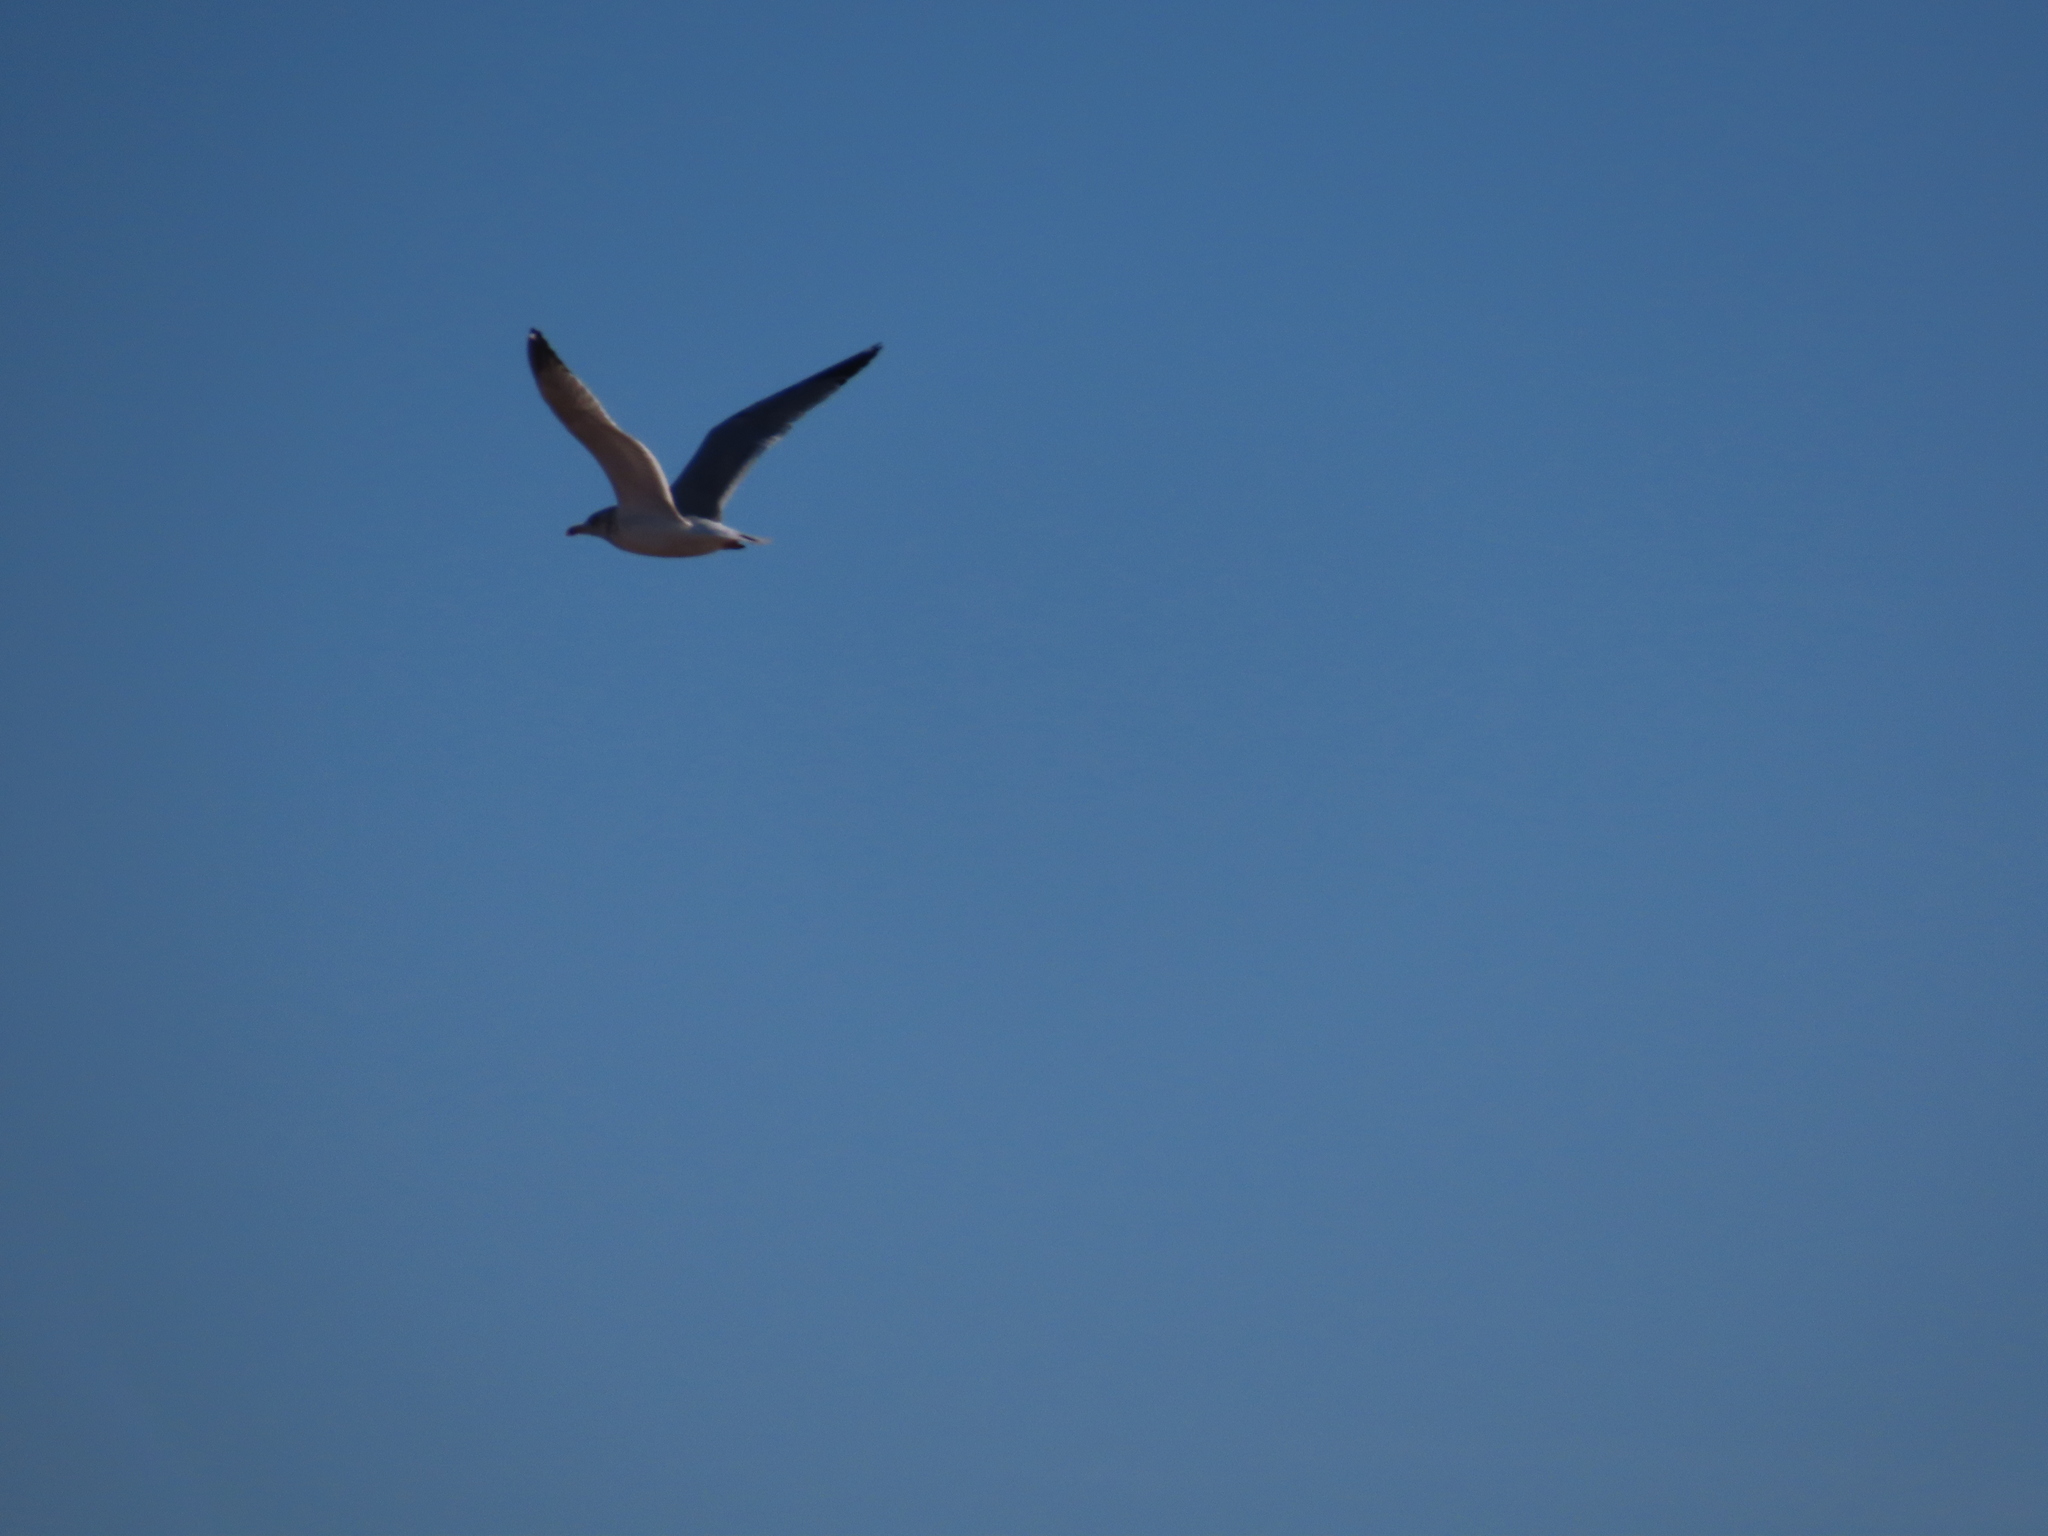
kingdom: Animalia
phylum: Chordata
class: Aves
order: Charadriiformes
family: Laridae
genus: Larus
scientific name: Larus argentatus
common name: Herring gull
